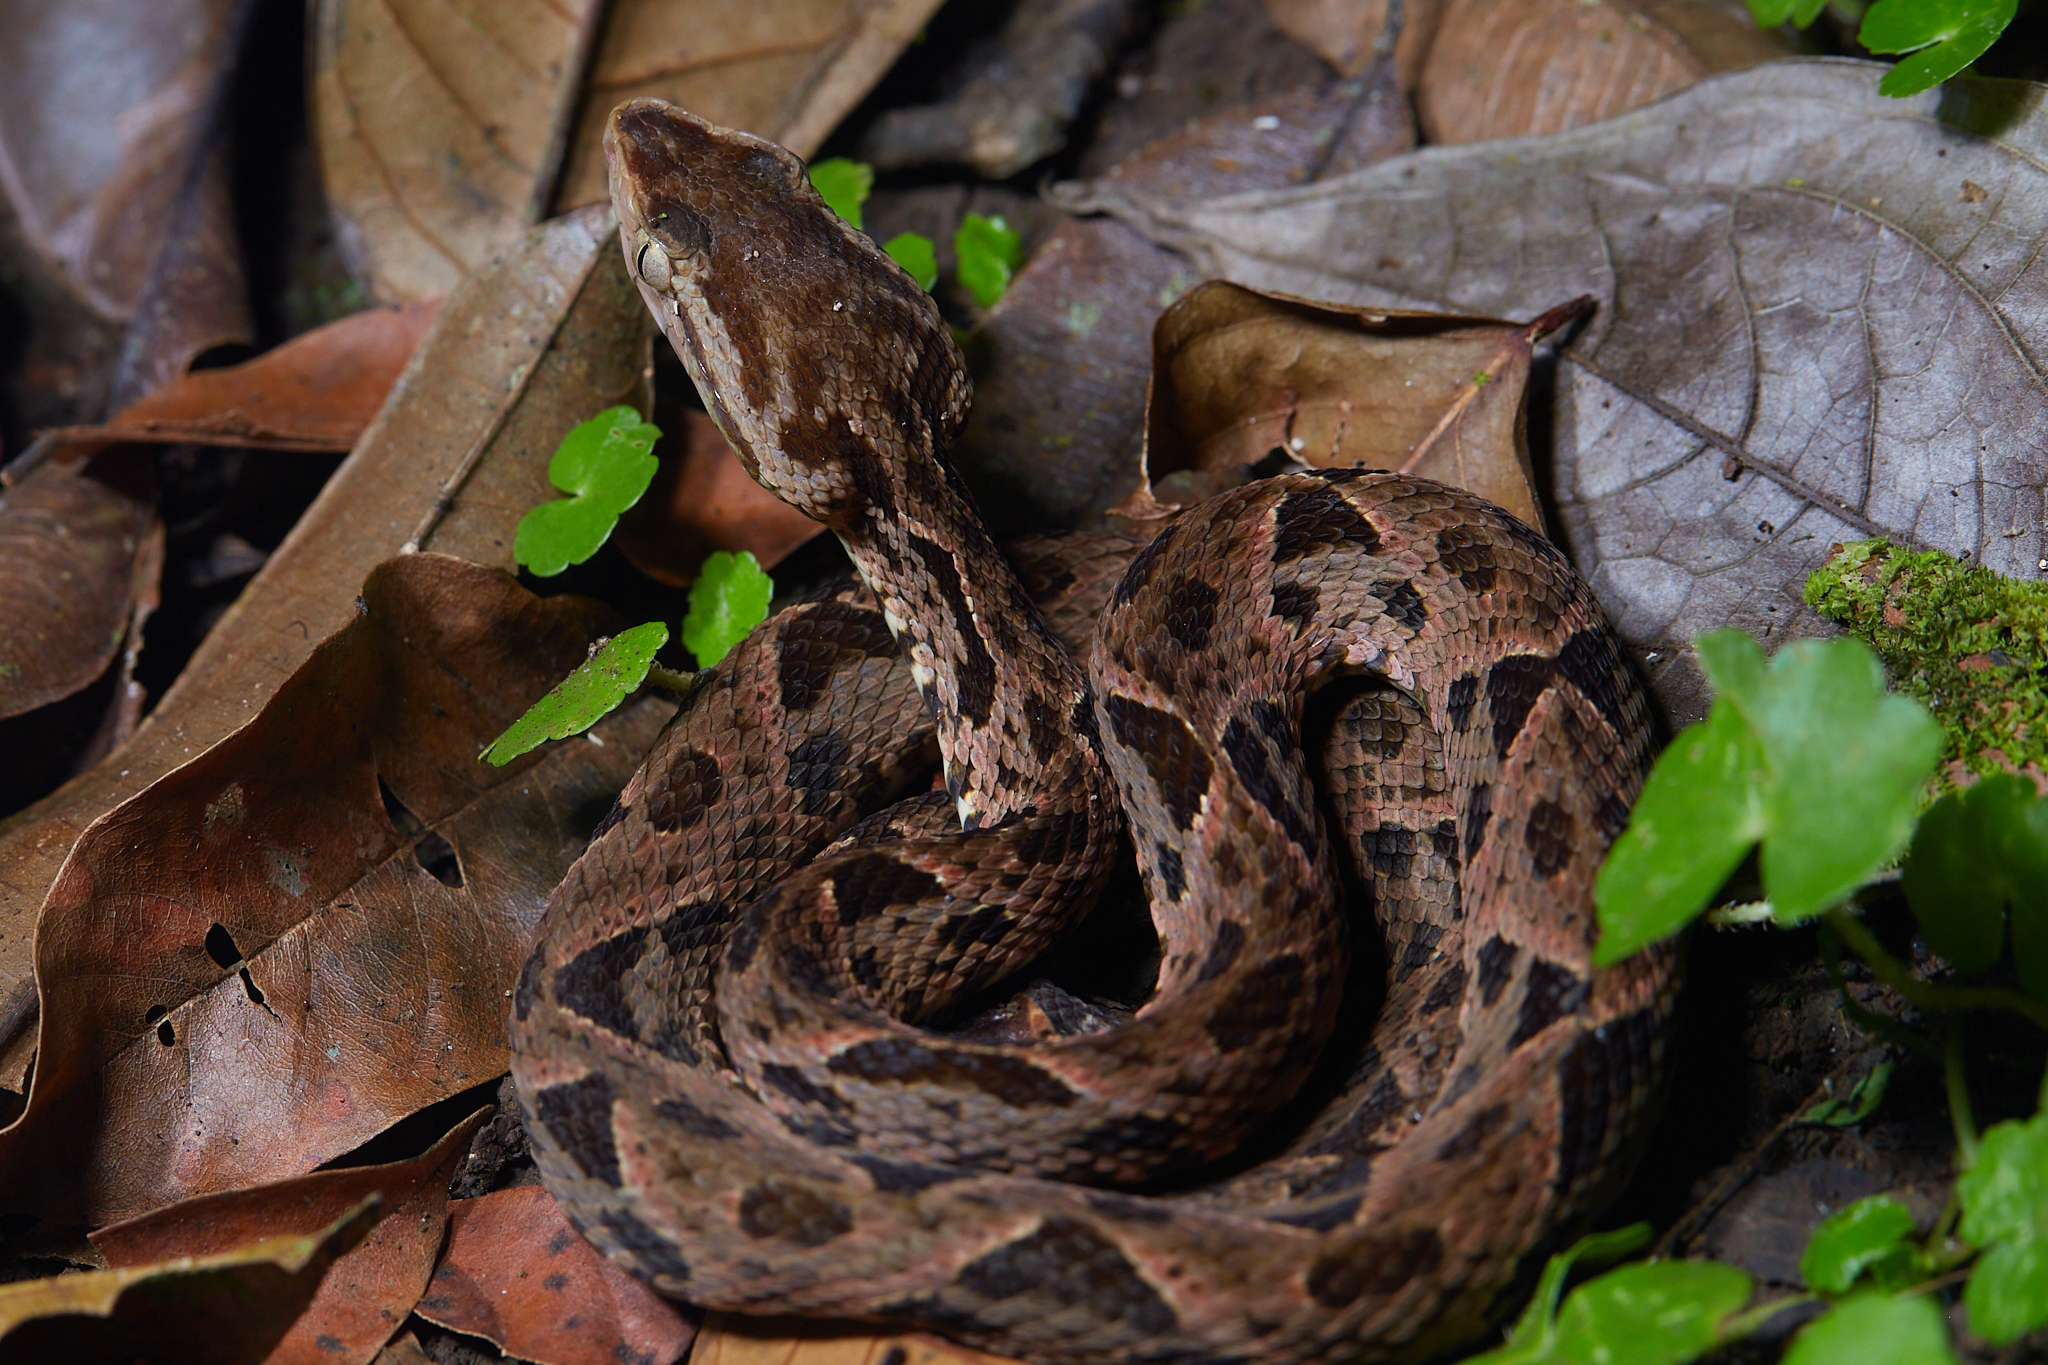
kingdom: Animalia
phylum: Chordata
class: Squamata
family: Viperidae
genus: Bothrops
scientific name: Bothrops asper
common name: Terciopelo
